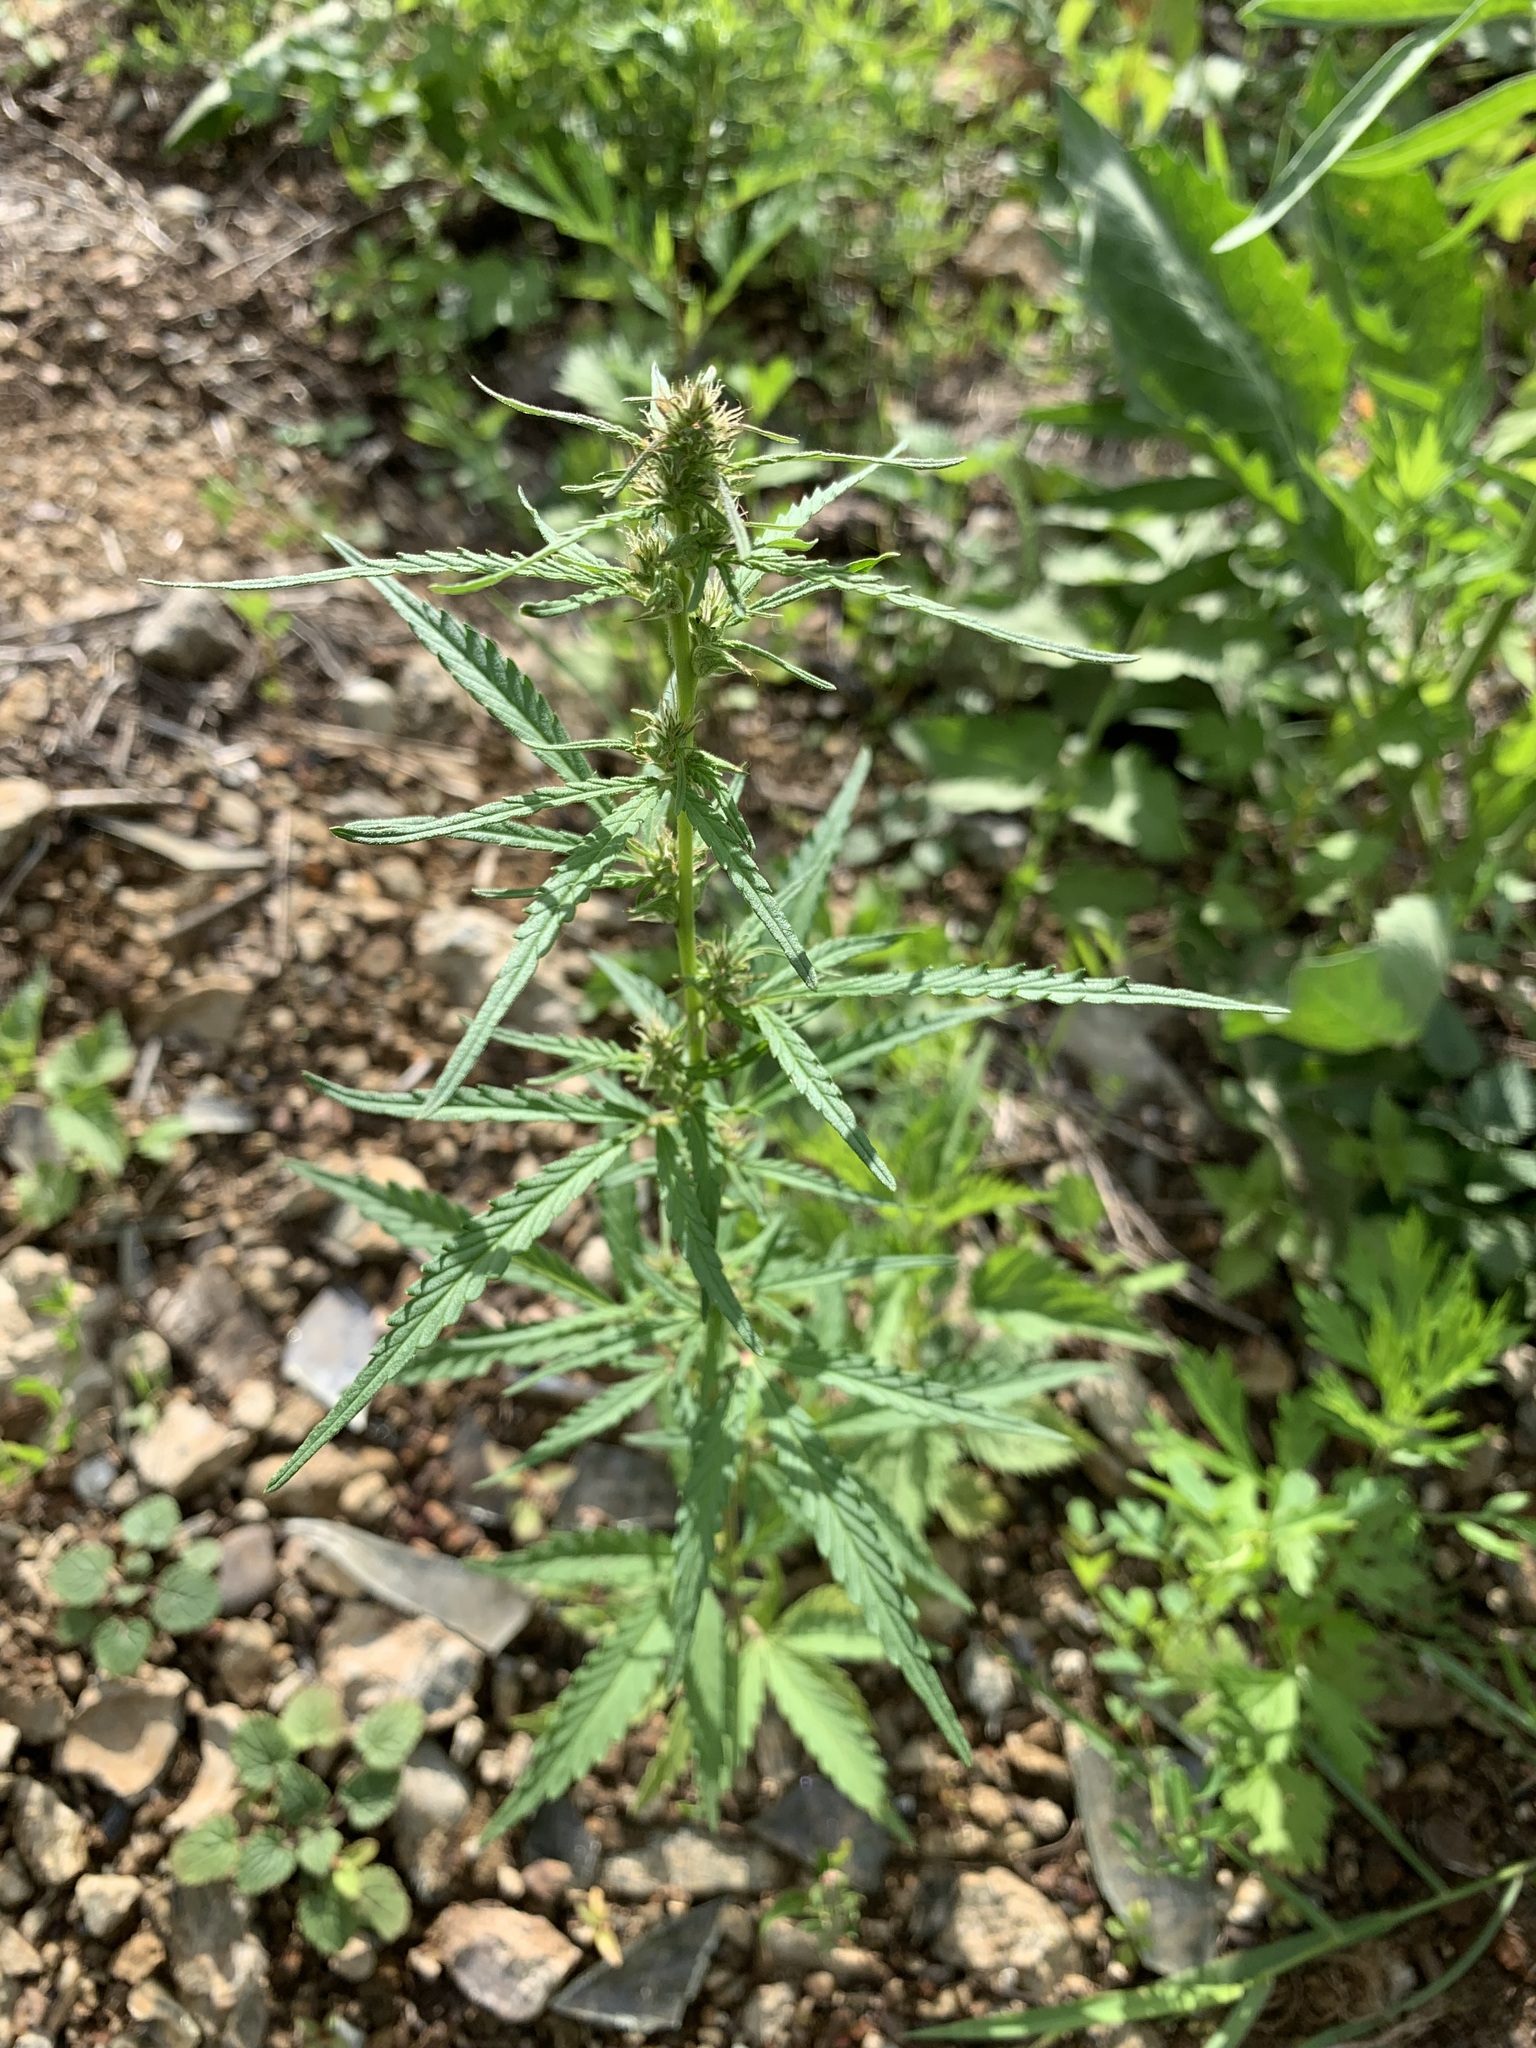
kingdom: Plantae
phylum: Tracheophyta
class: Magnoliopsida
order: Rosales
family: Cannabaceae
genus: Cannabis
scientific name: Cannabis sativa
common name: Hemp
